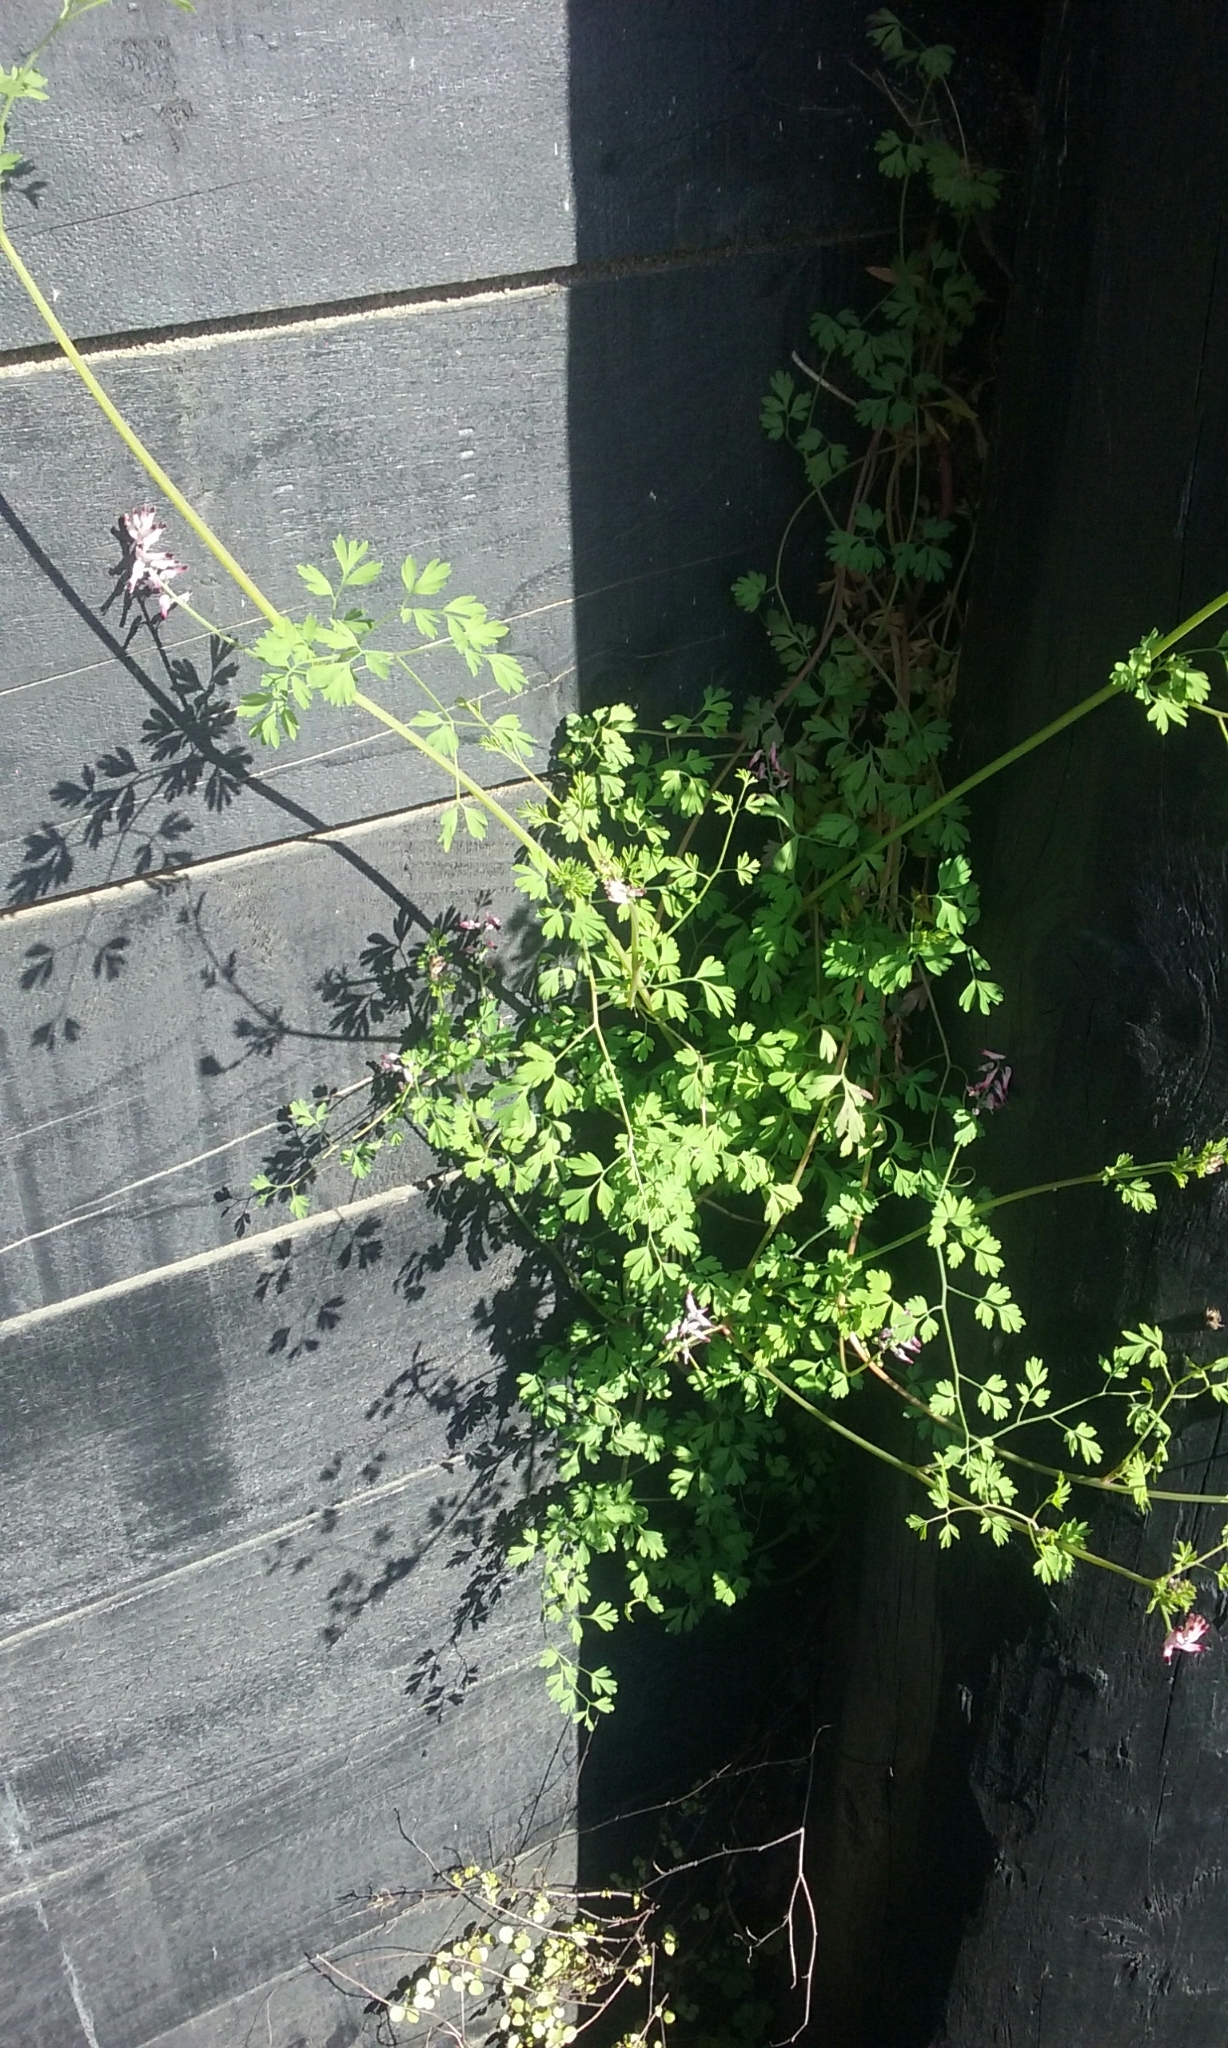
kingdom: Plantae
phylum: Tracheophyta
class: Magnoliopsida
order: Ranunculales
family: Papaveraceae
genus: Fumaria
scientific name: Fumaria muralis
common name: Common ramping-fumitory
